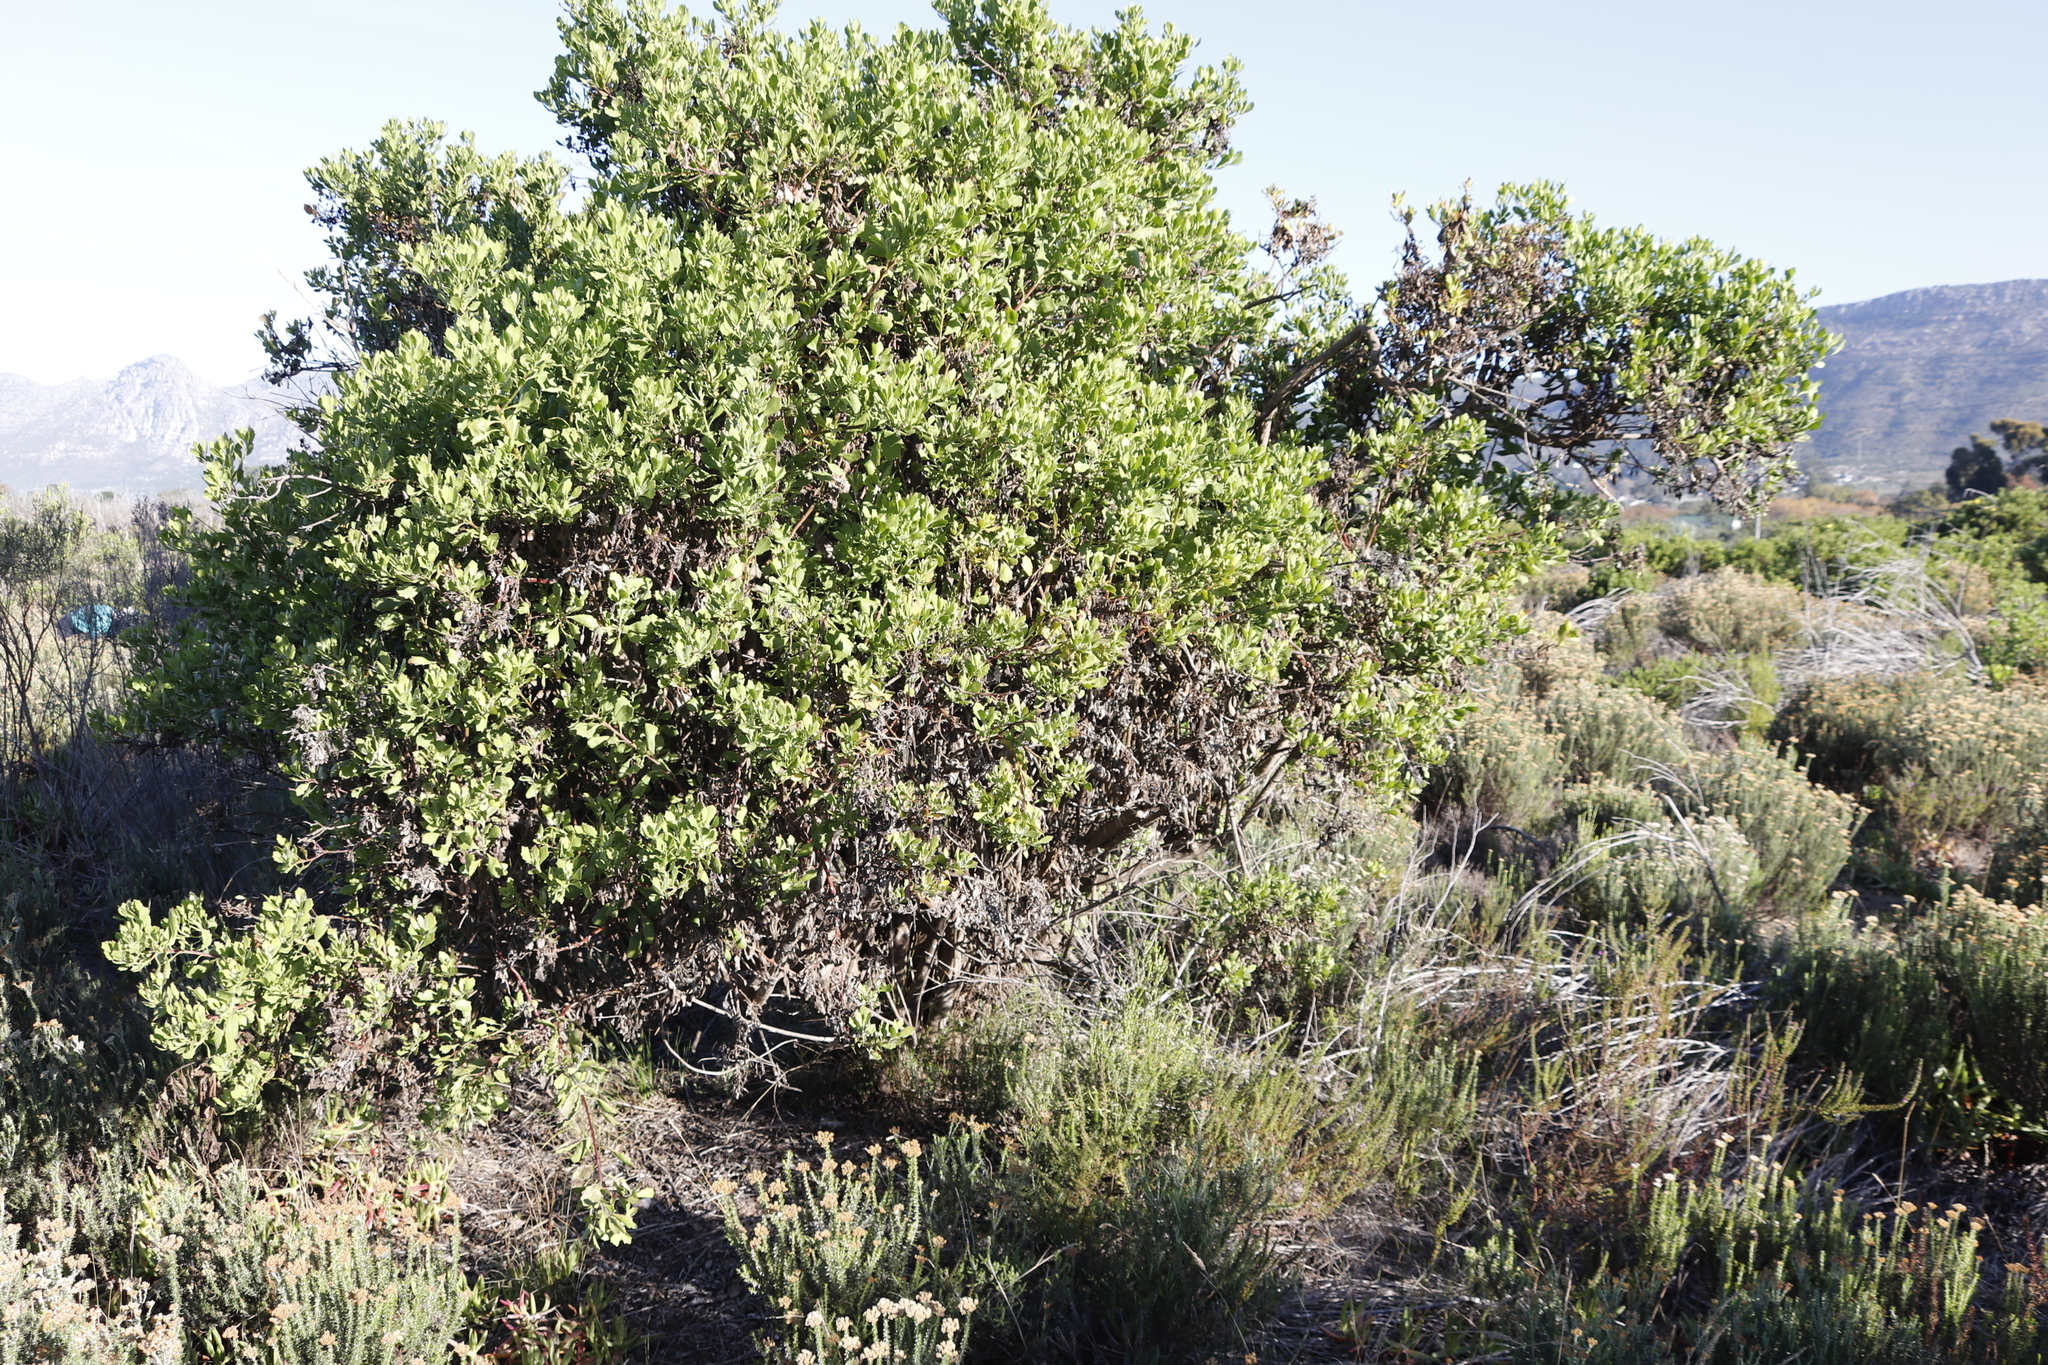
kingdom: Plantae
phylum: Tracheophyta
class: Magnoliopsida
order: Asterales
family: Asteraceae
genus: Osteospermum
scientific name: Osteospermum moniliferum
